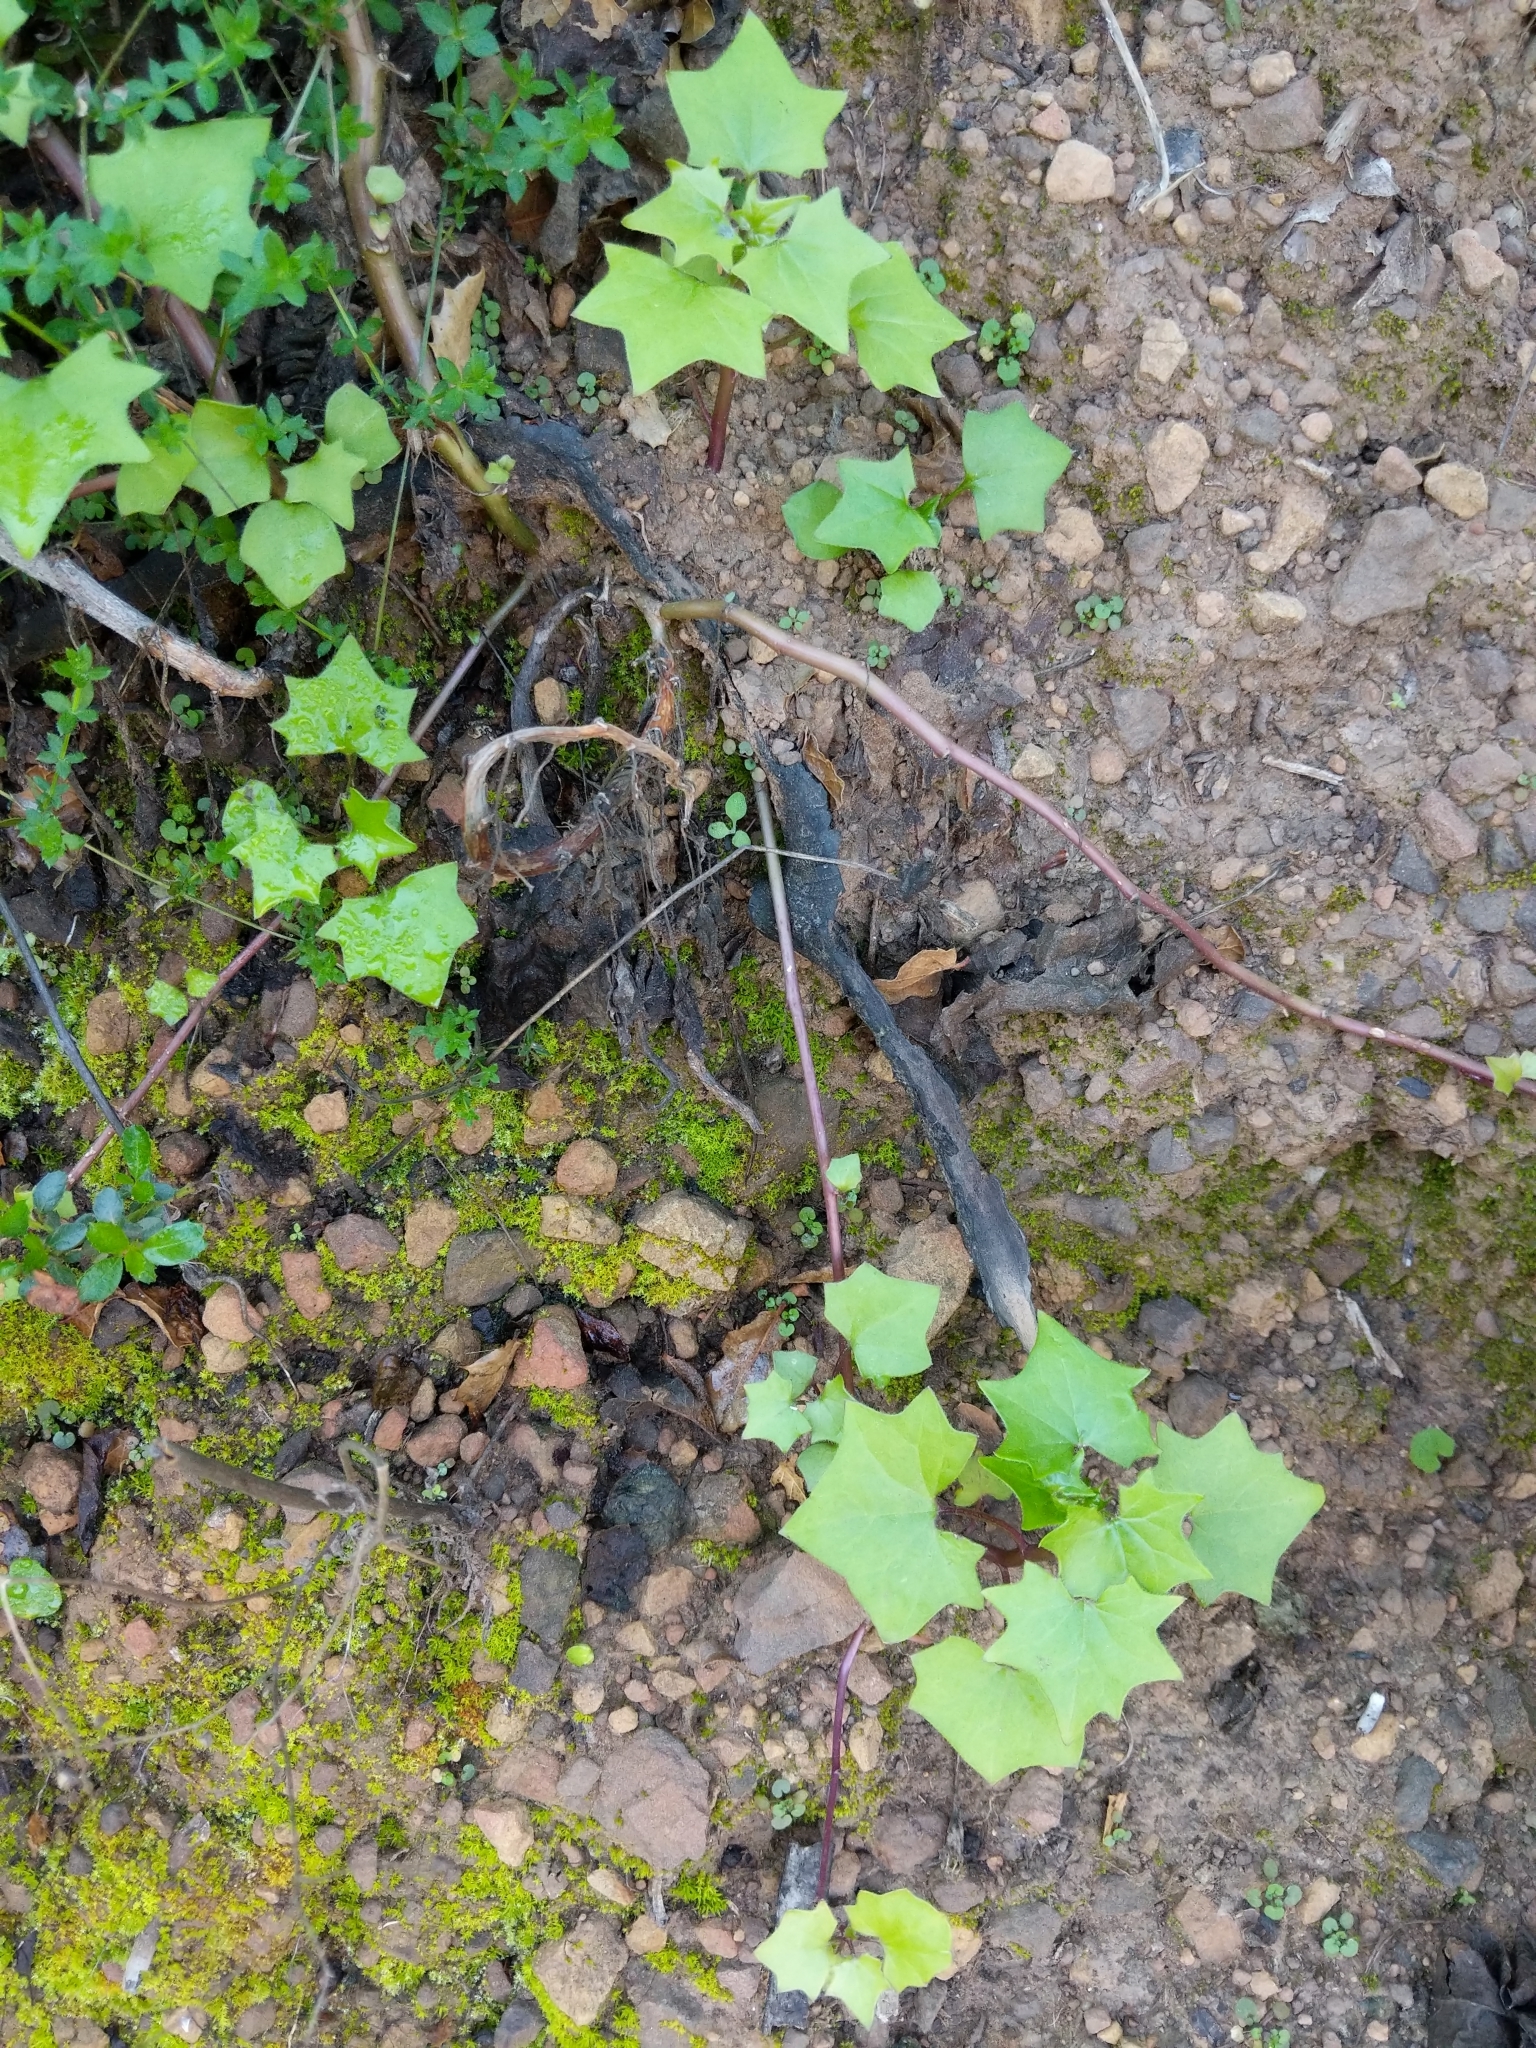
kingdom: Plantae
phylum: Tracheophyta
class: Magnoliopsida
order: Asterales
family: Asteraceae
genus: Delairea
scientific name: Delairea odorata
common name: Cape-ivy
